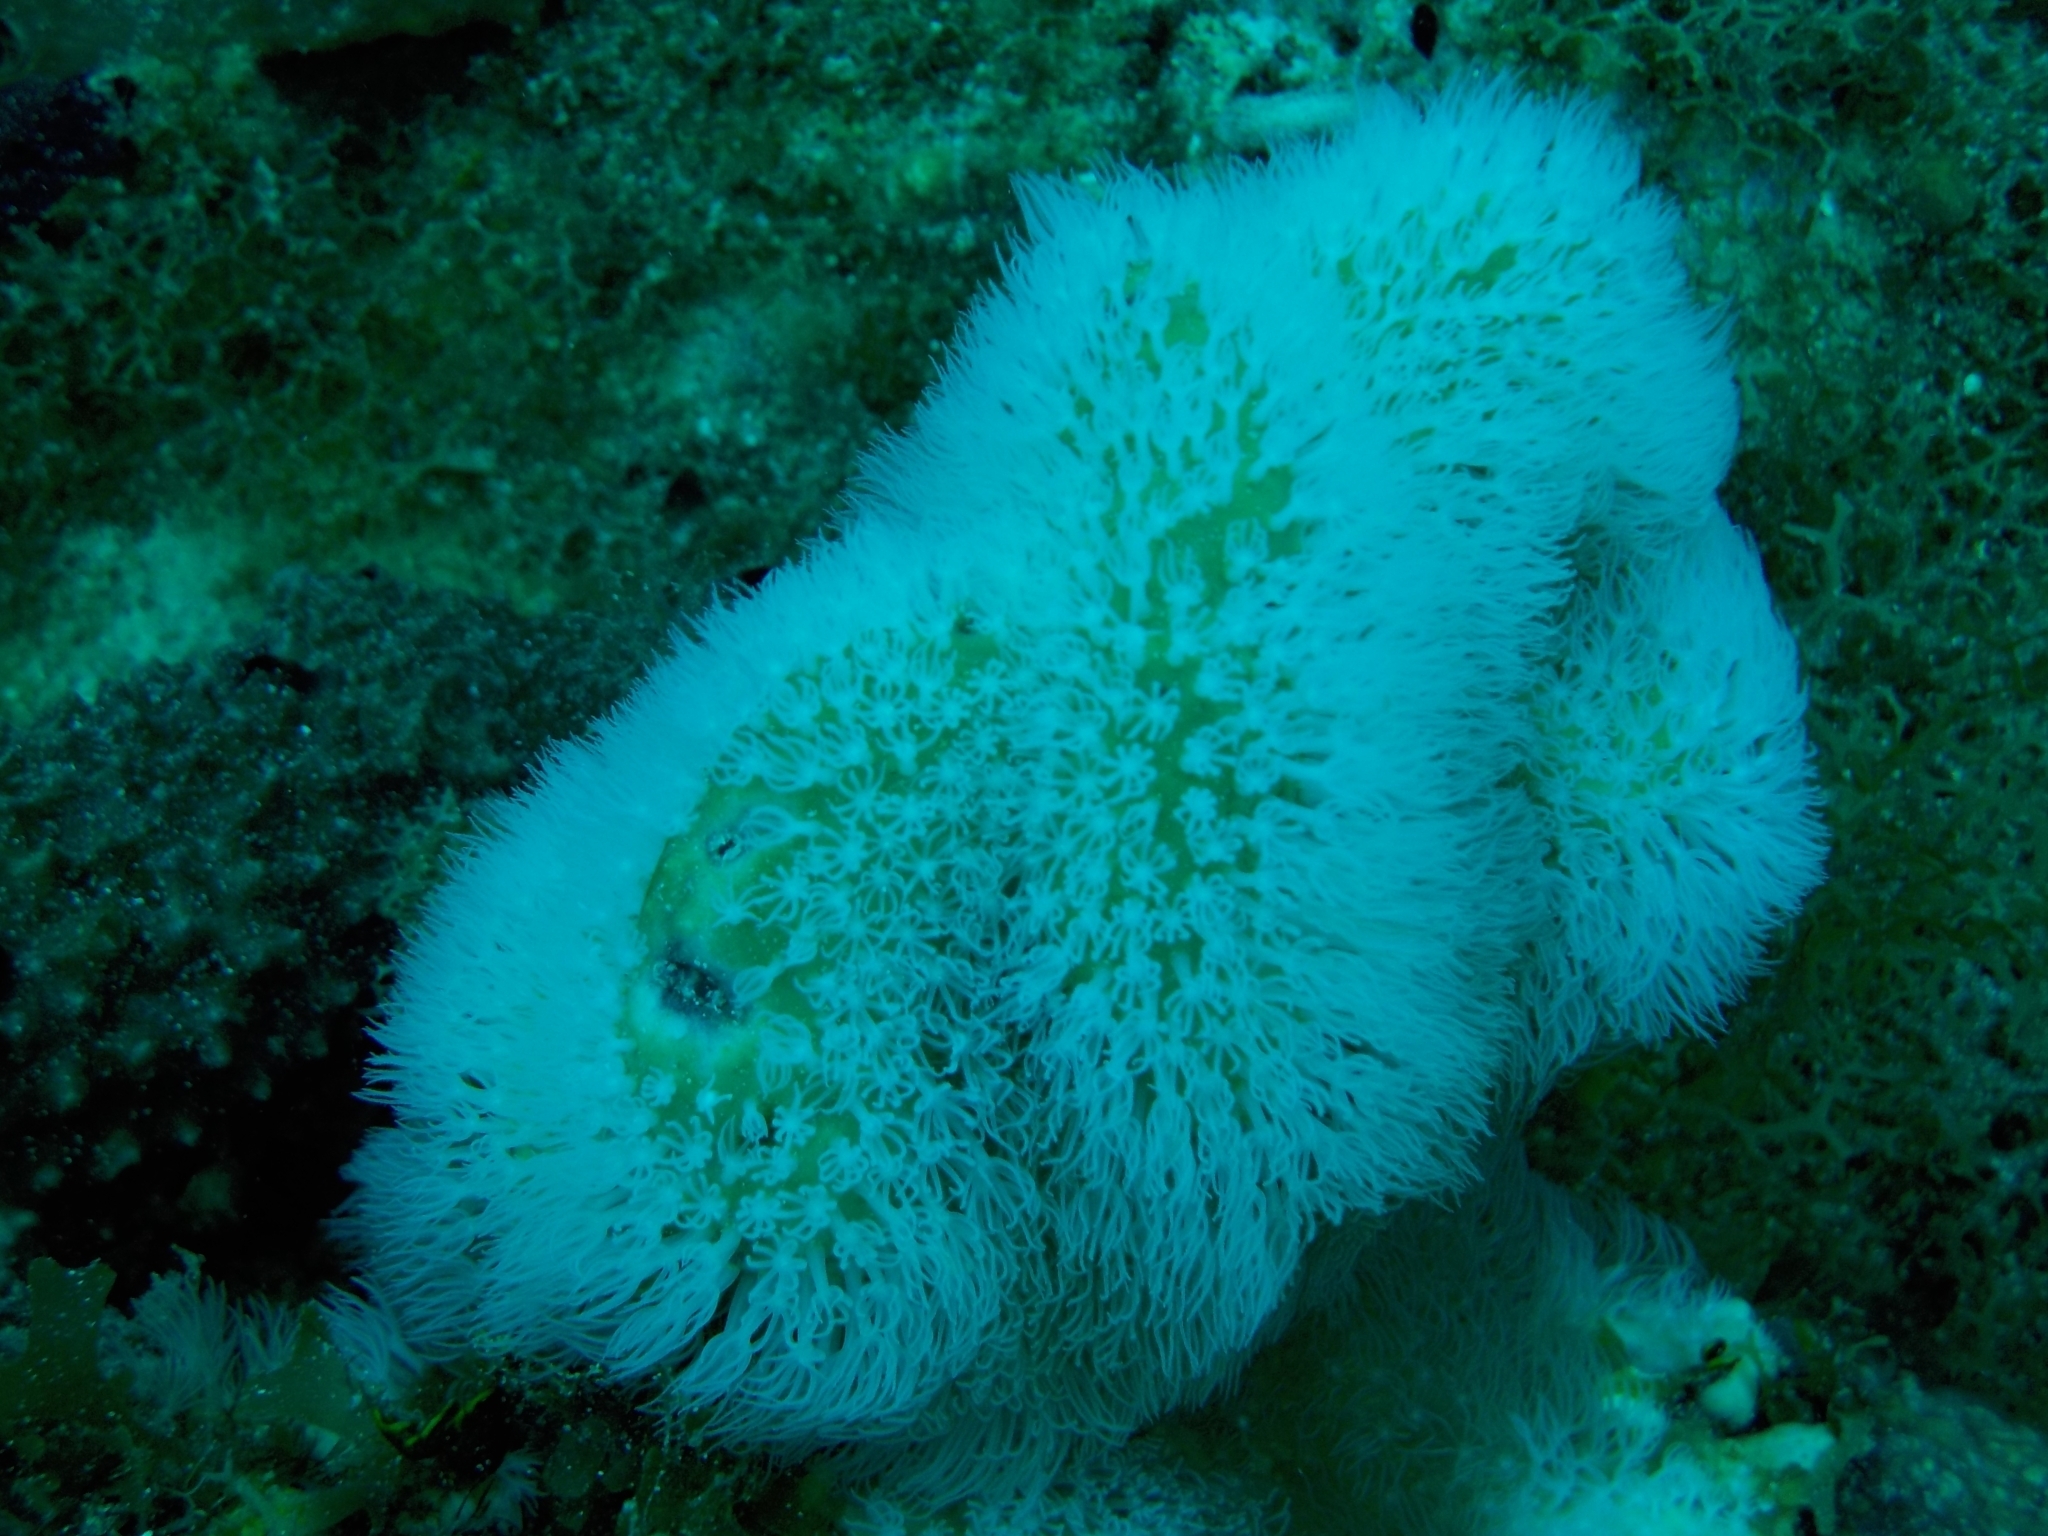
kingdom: Animalia
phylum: Cnidaria
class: Anthozoa
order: Scleralcyonacea
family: Erythropodiidae
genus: Erythropodium
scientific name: Erythropodium caribaeorum
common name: Encrusting gorgonian
